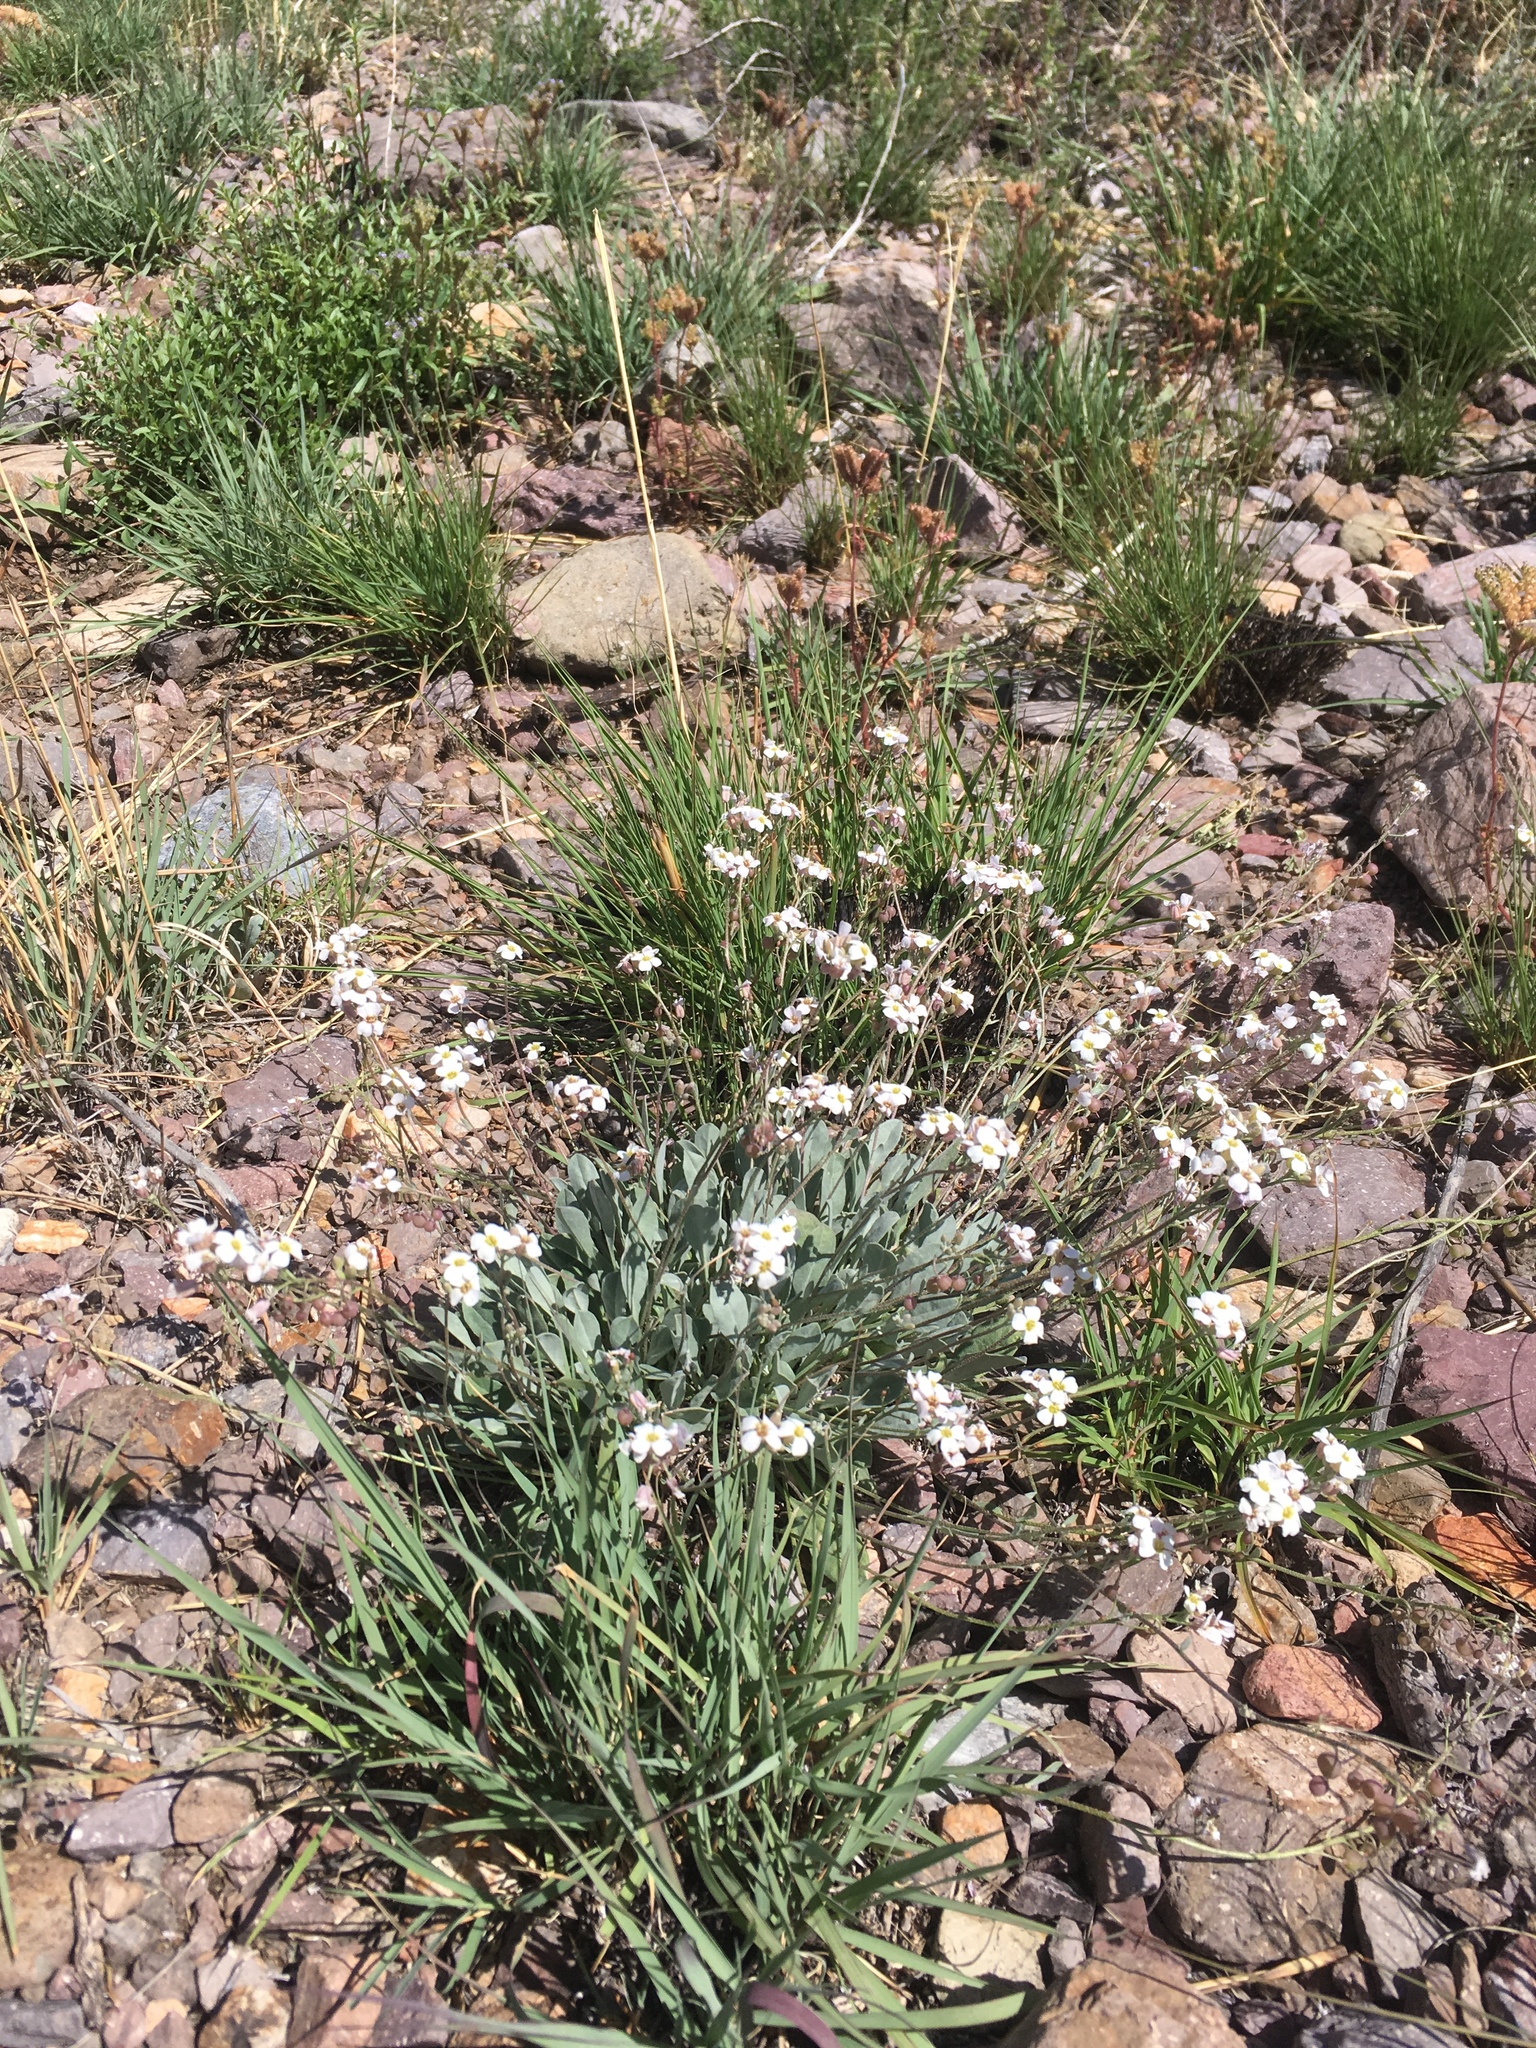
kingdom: Plantae
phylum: Tracheophyta
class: Magnoliopsida
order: Brassicales
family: Brassicaceae
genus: Physaria
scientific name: Physaria purpurea
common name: Rose bladderpod
